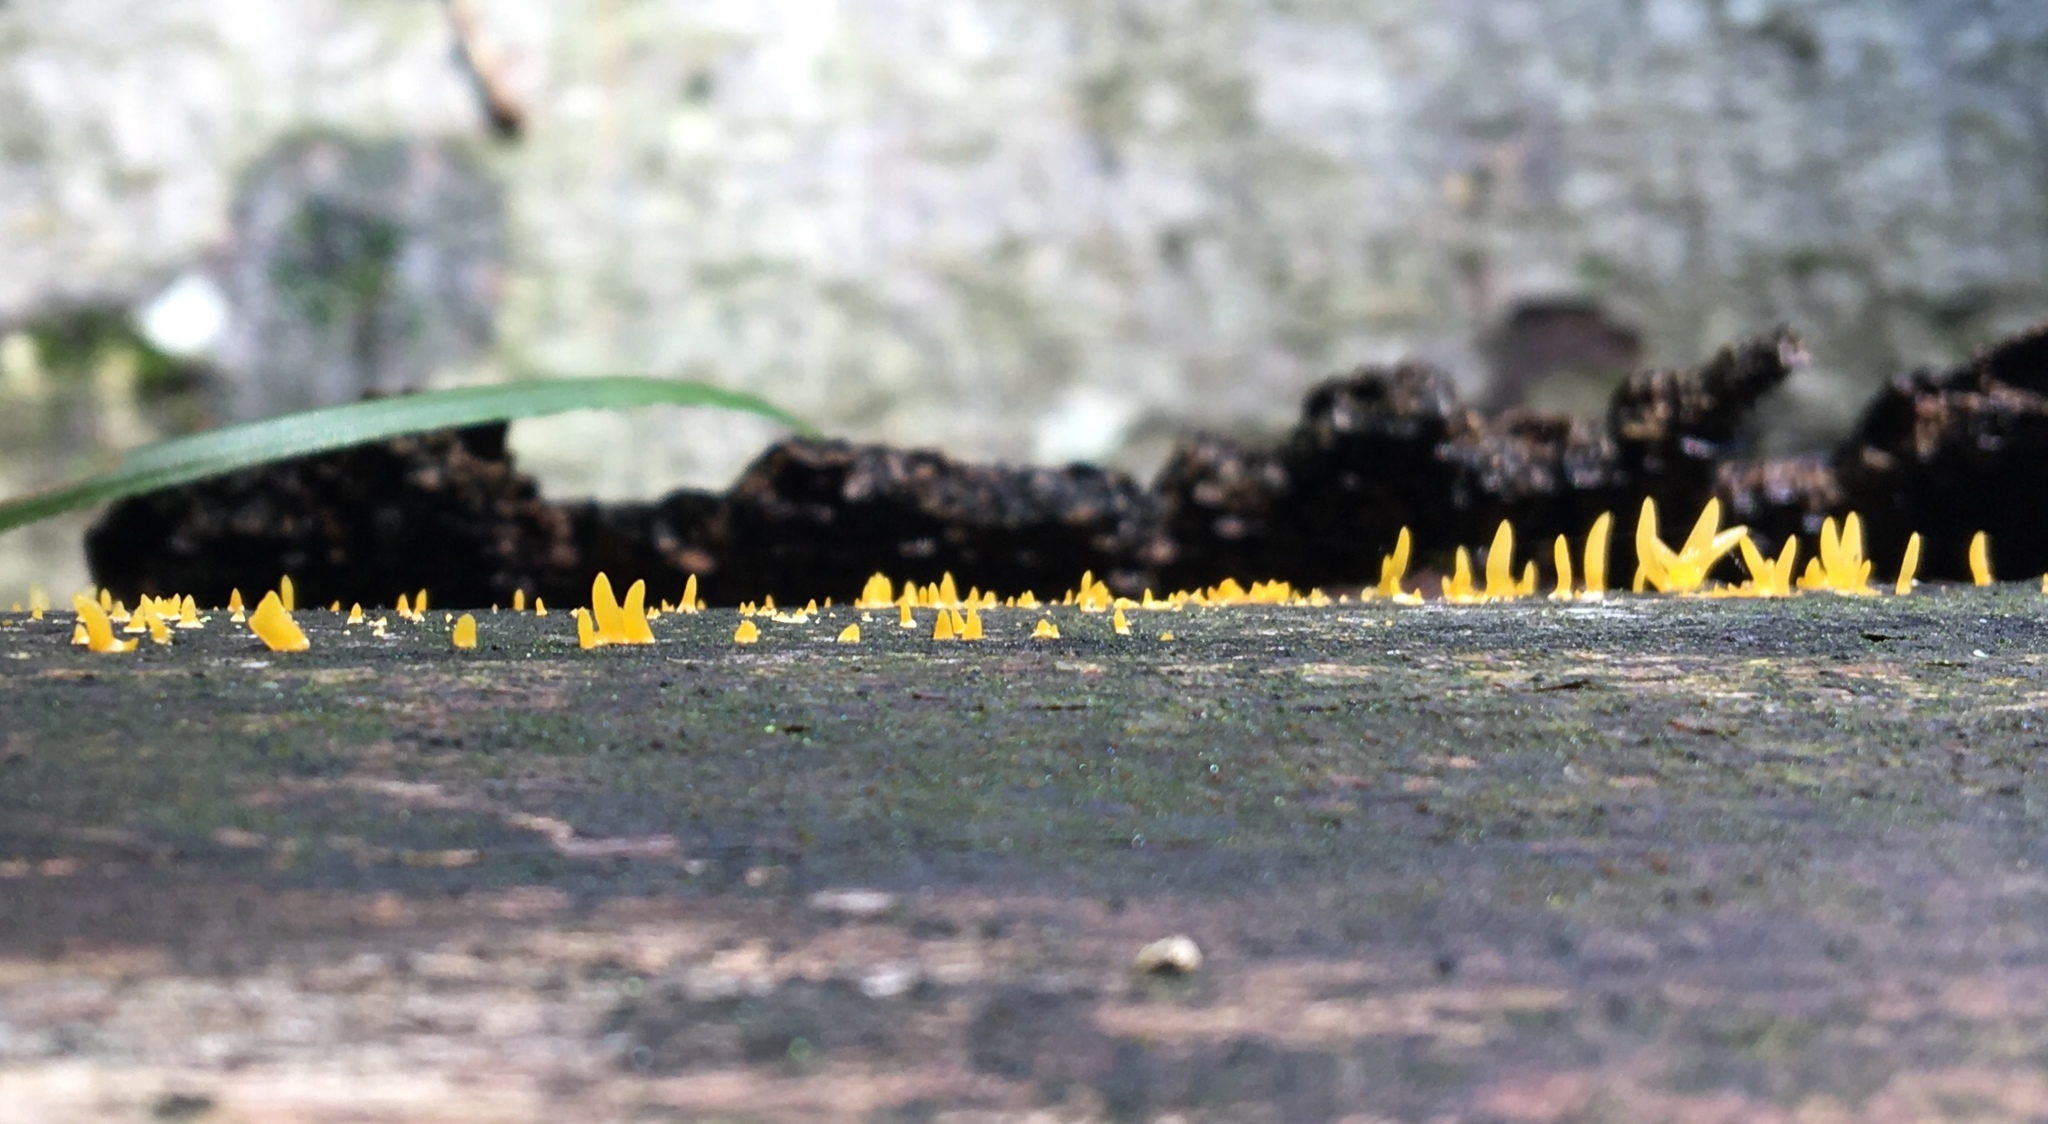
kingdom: Fungi
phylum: Basidiomycota
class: Dacrymycetes
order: Dacrymycetales
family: Dacrymycetaceae
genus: Calocera
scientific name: Calocera cornea
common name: Small stagshorn
